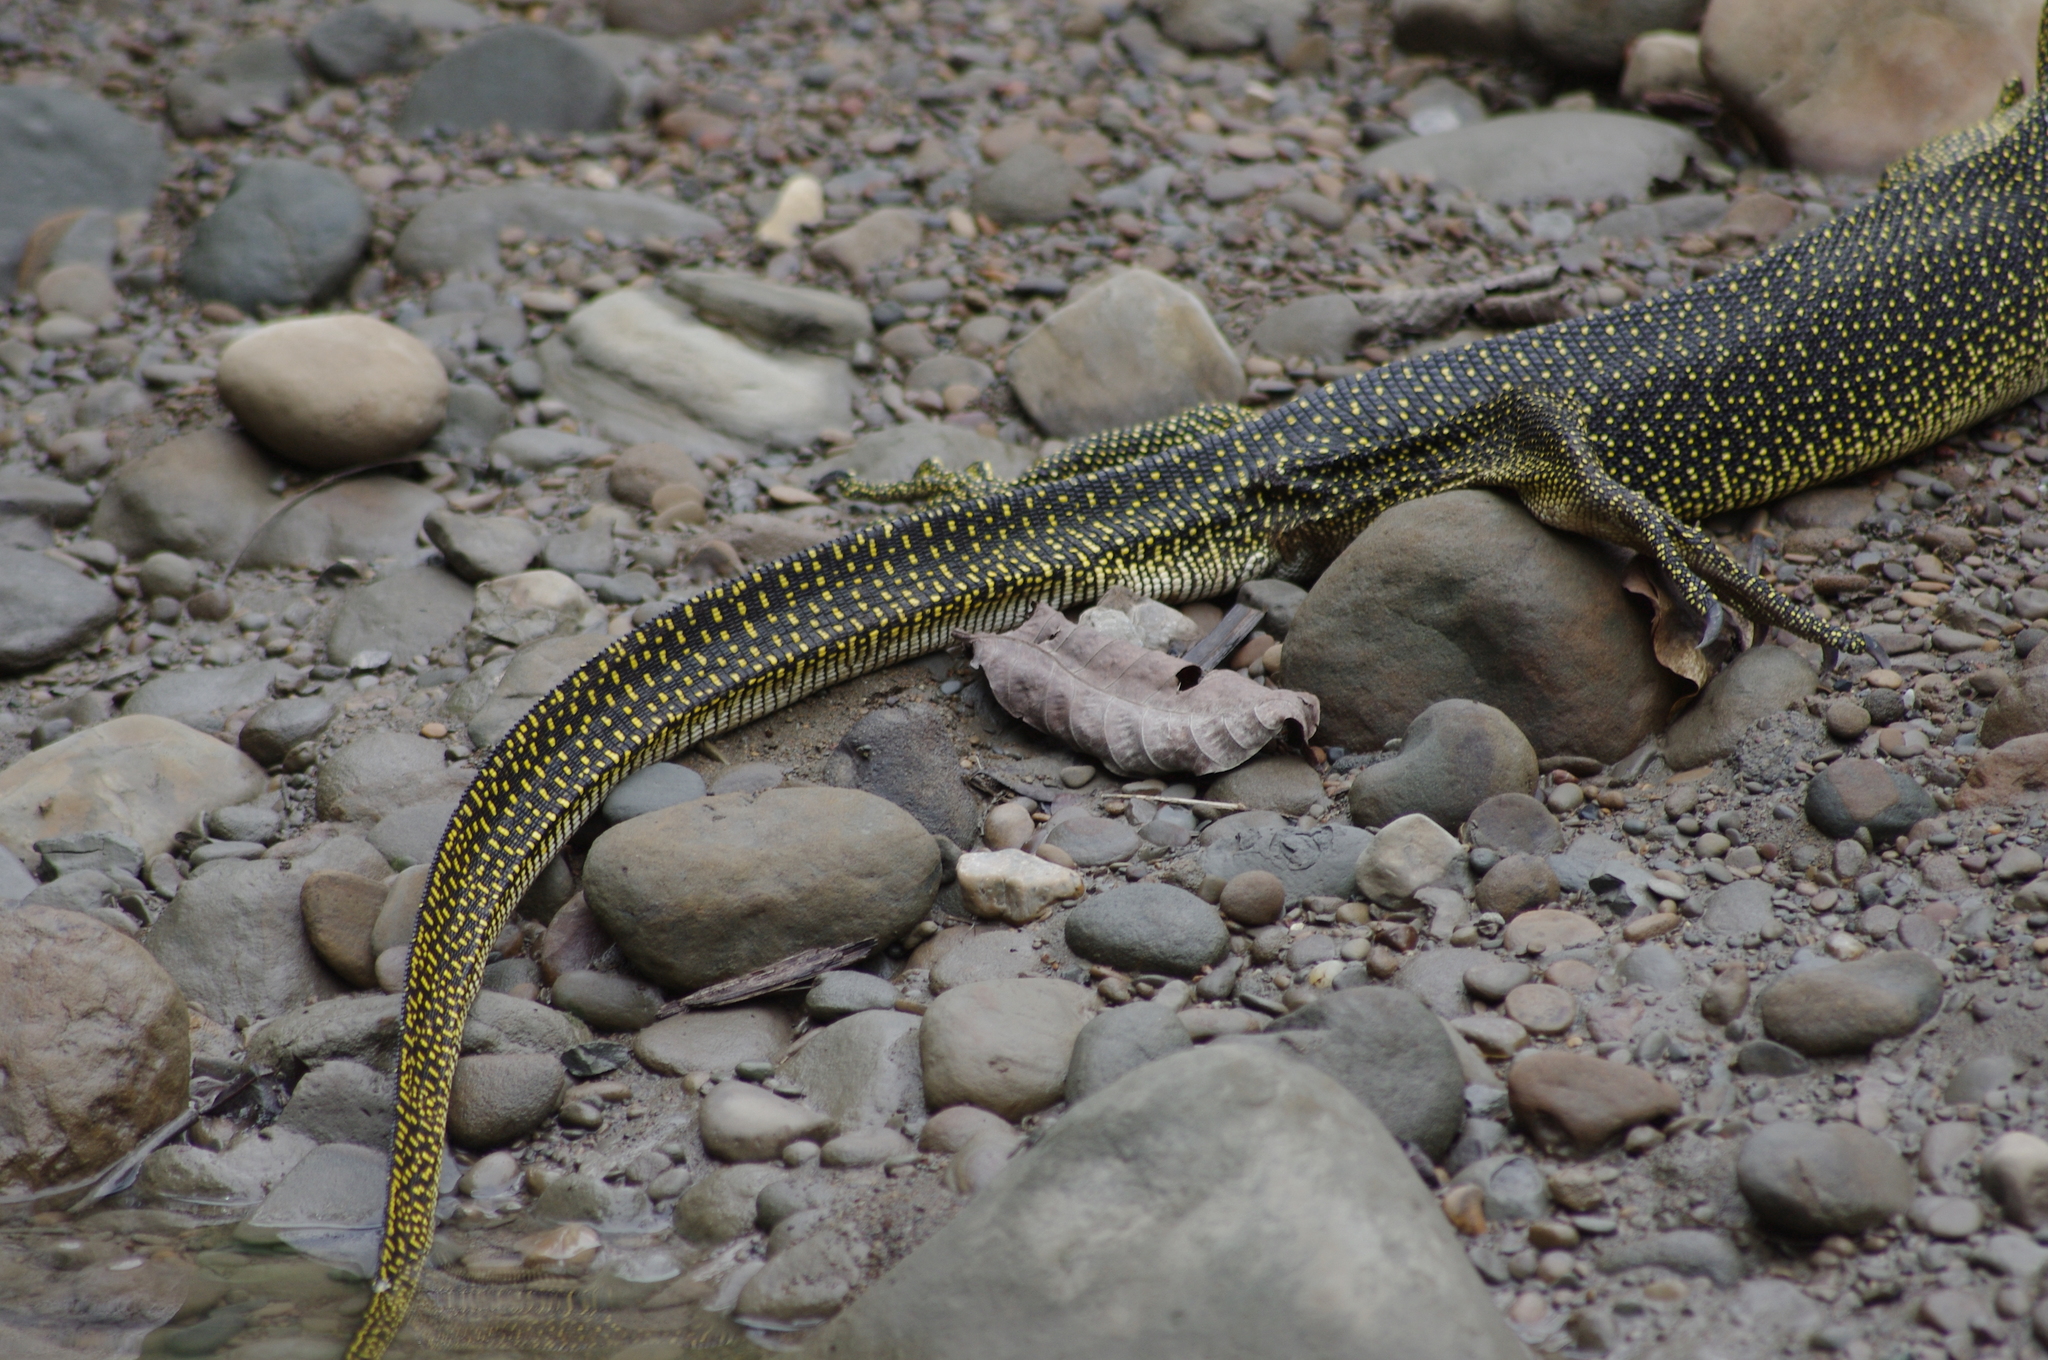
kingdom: Animalia
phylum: Chordata
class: Squamata
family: Varanidae
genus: Varanus
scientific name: Varanus indicus
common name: Mangrove monitor
